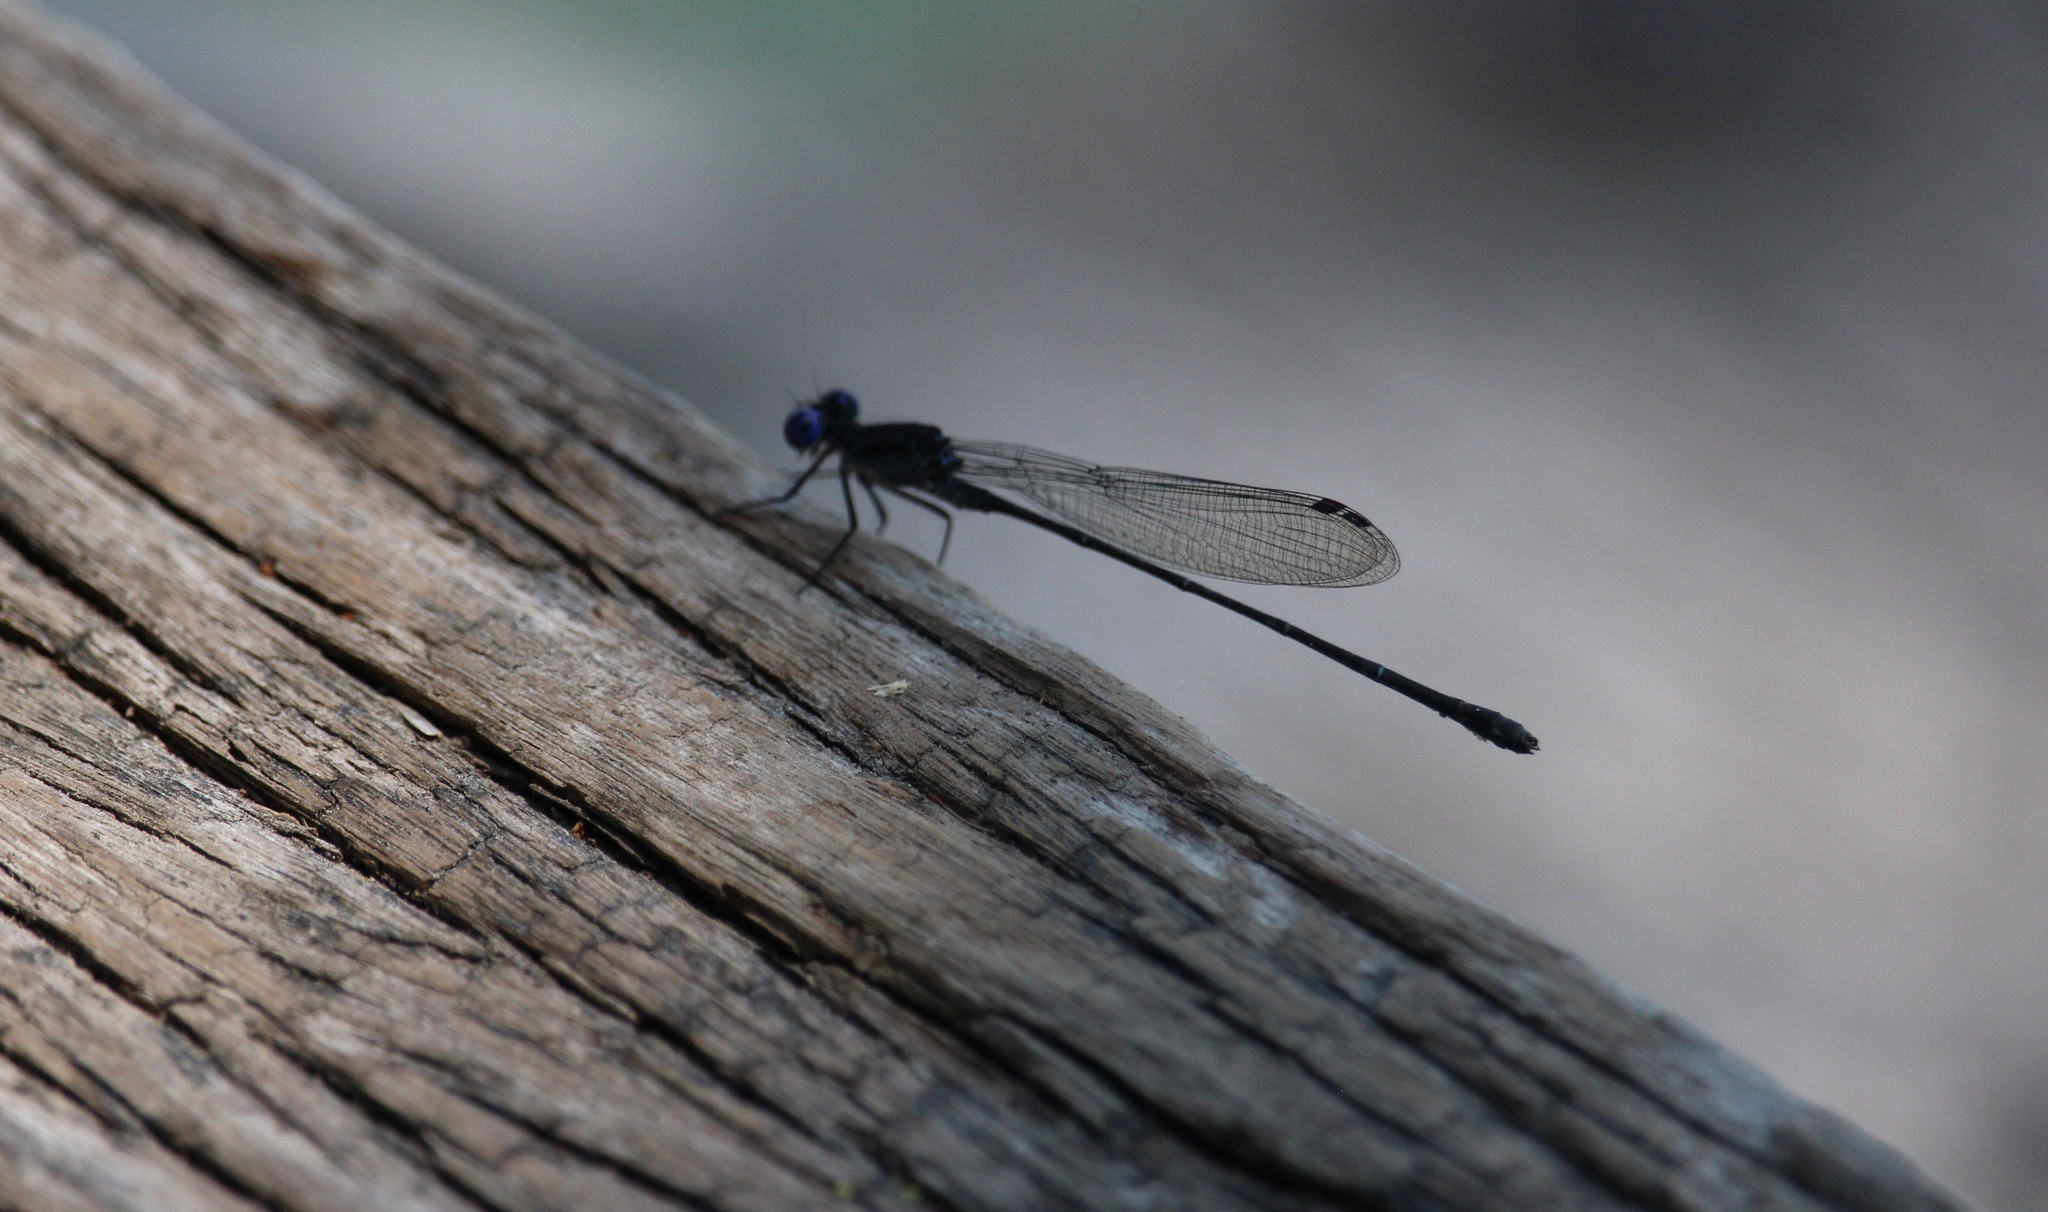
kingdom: Animalia
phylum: Arthropoda
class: Insecta
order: Odonata
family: Coenagrionidae
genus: Argia
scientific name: Argia translata
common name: Dusky dancer
